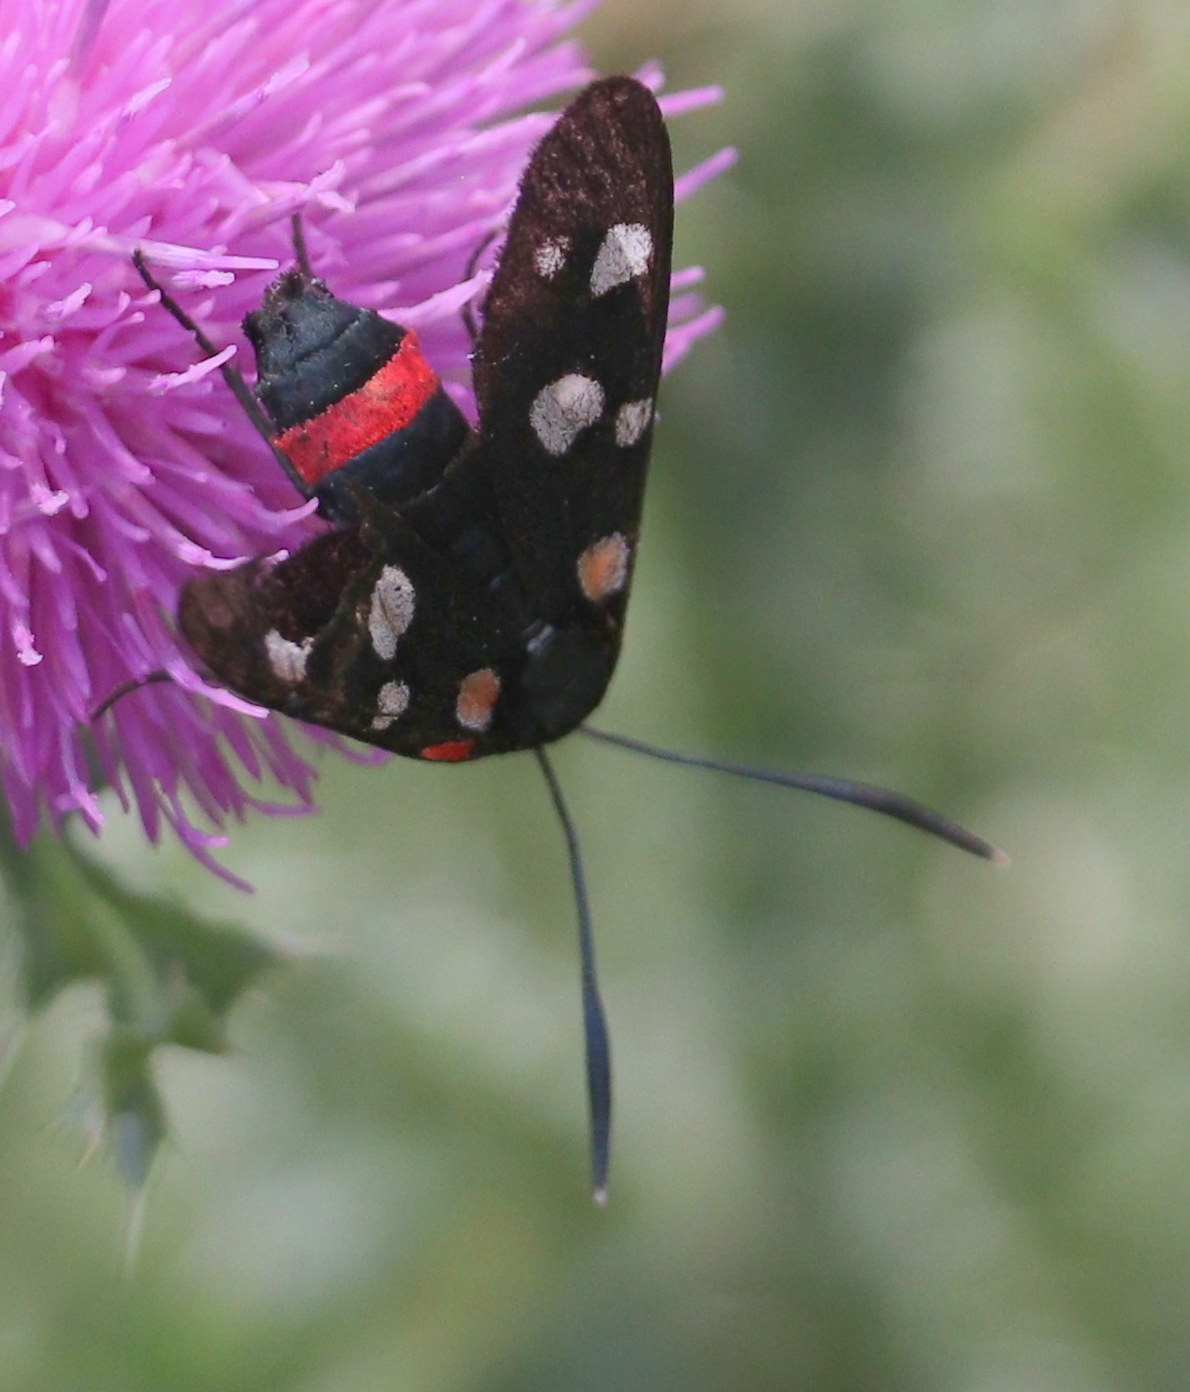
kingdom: Animalia
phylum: Arthropoda
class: Insecta
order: Lepidoptera
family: Zygaenidae
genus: Zygaena
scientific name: Zygaena ephialtes
